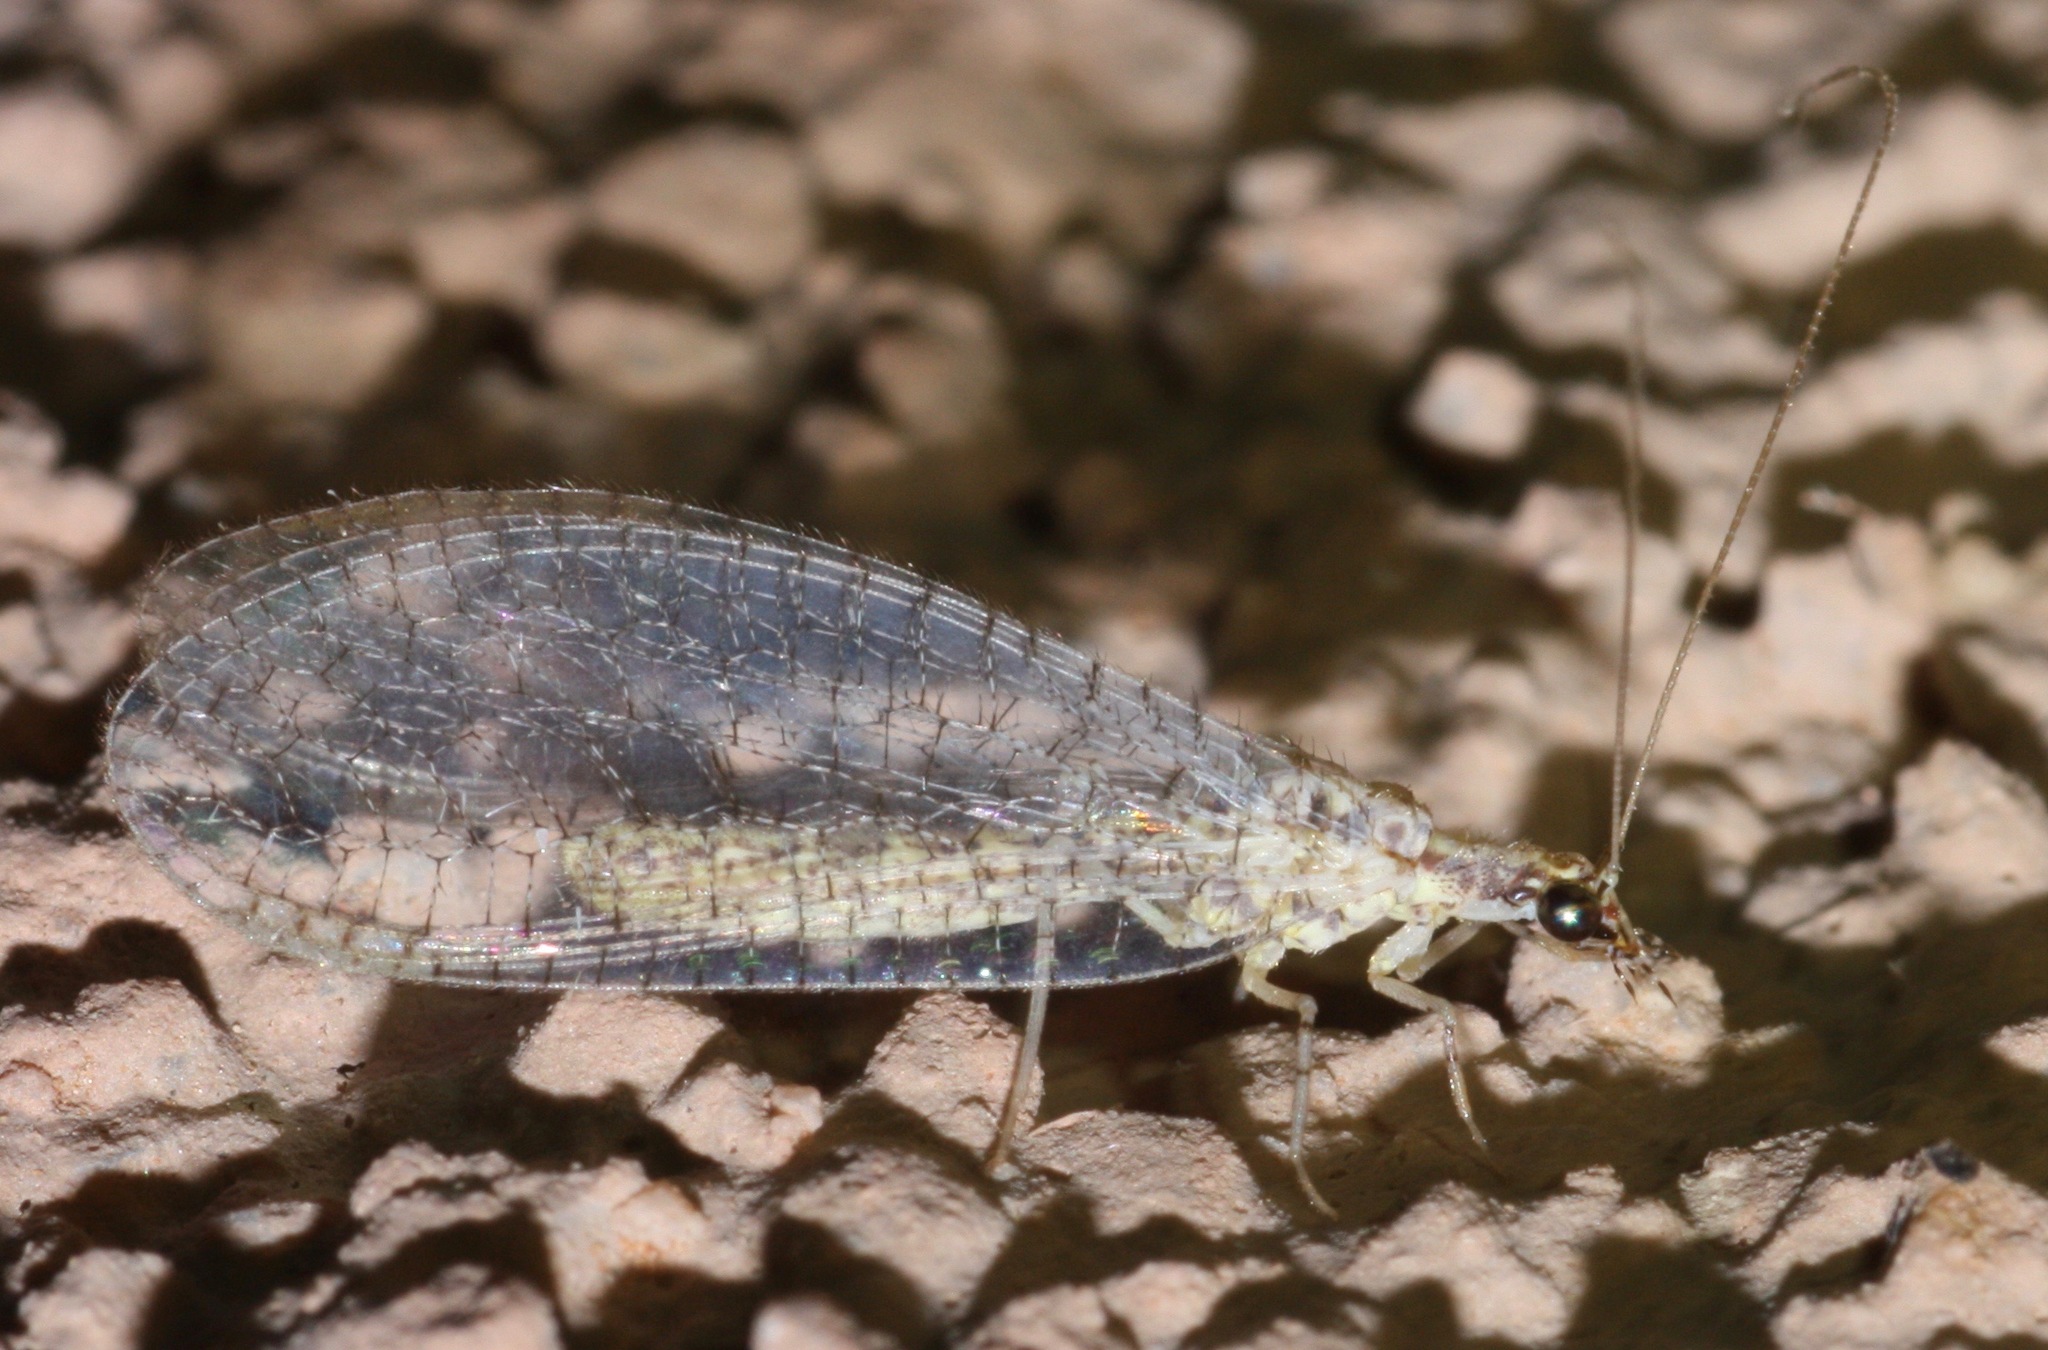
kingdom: Animalia
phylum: Arthropoda
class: Insecta
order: Neuroptera
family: Chrysopidae
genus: Eremochrysa
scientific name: Eremochrysa tibialis
